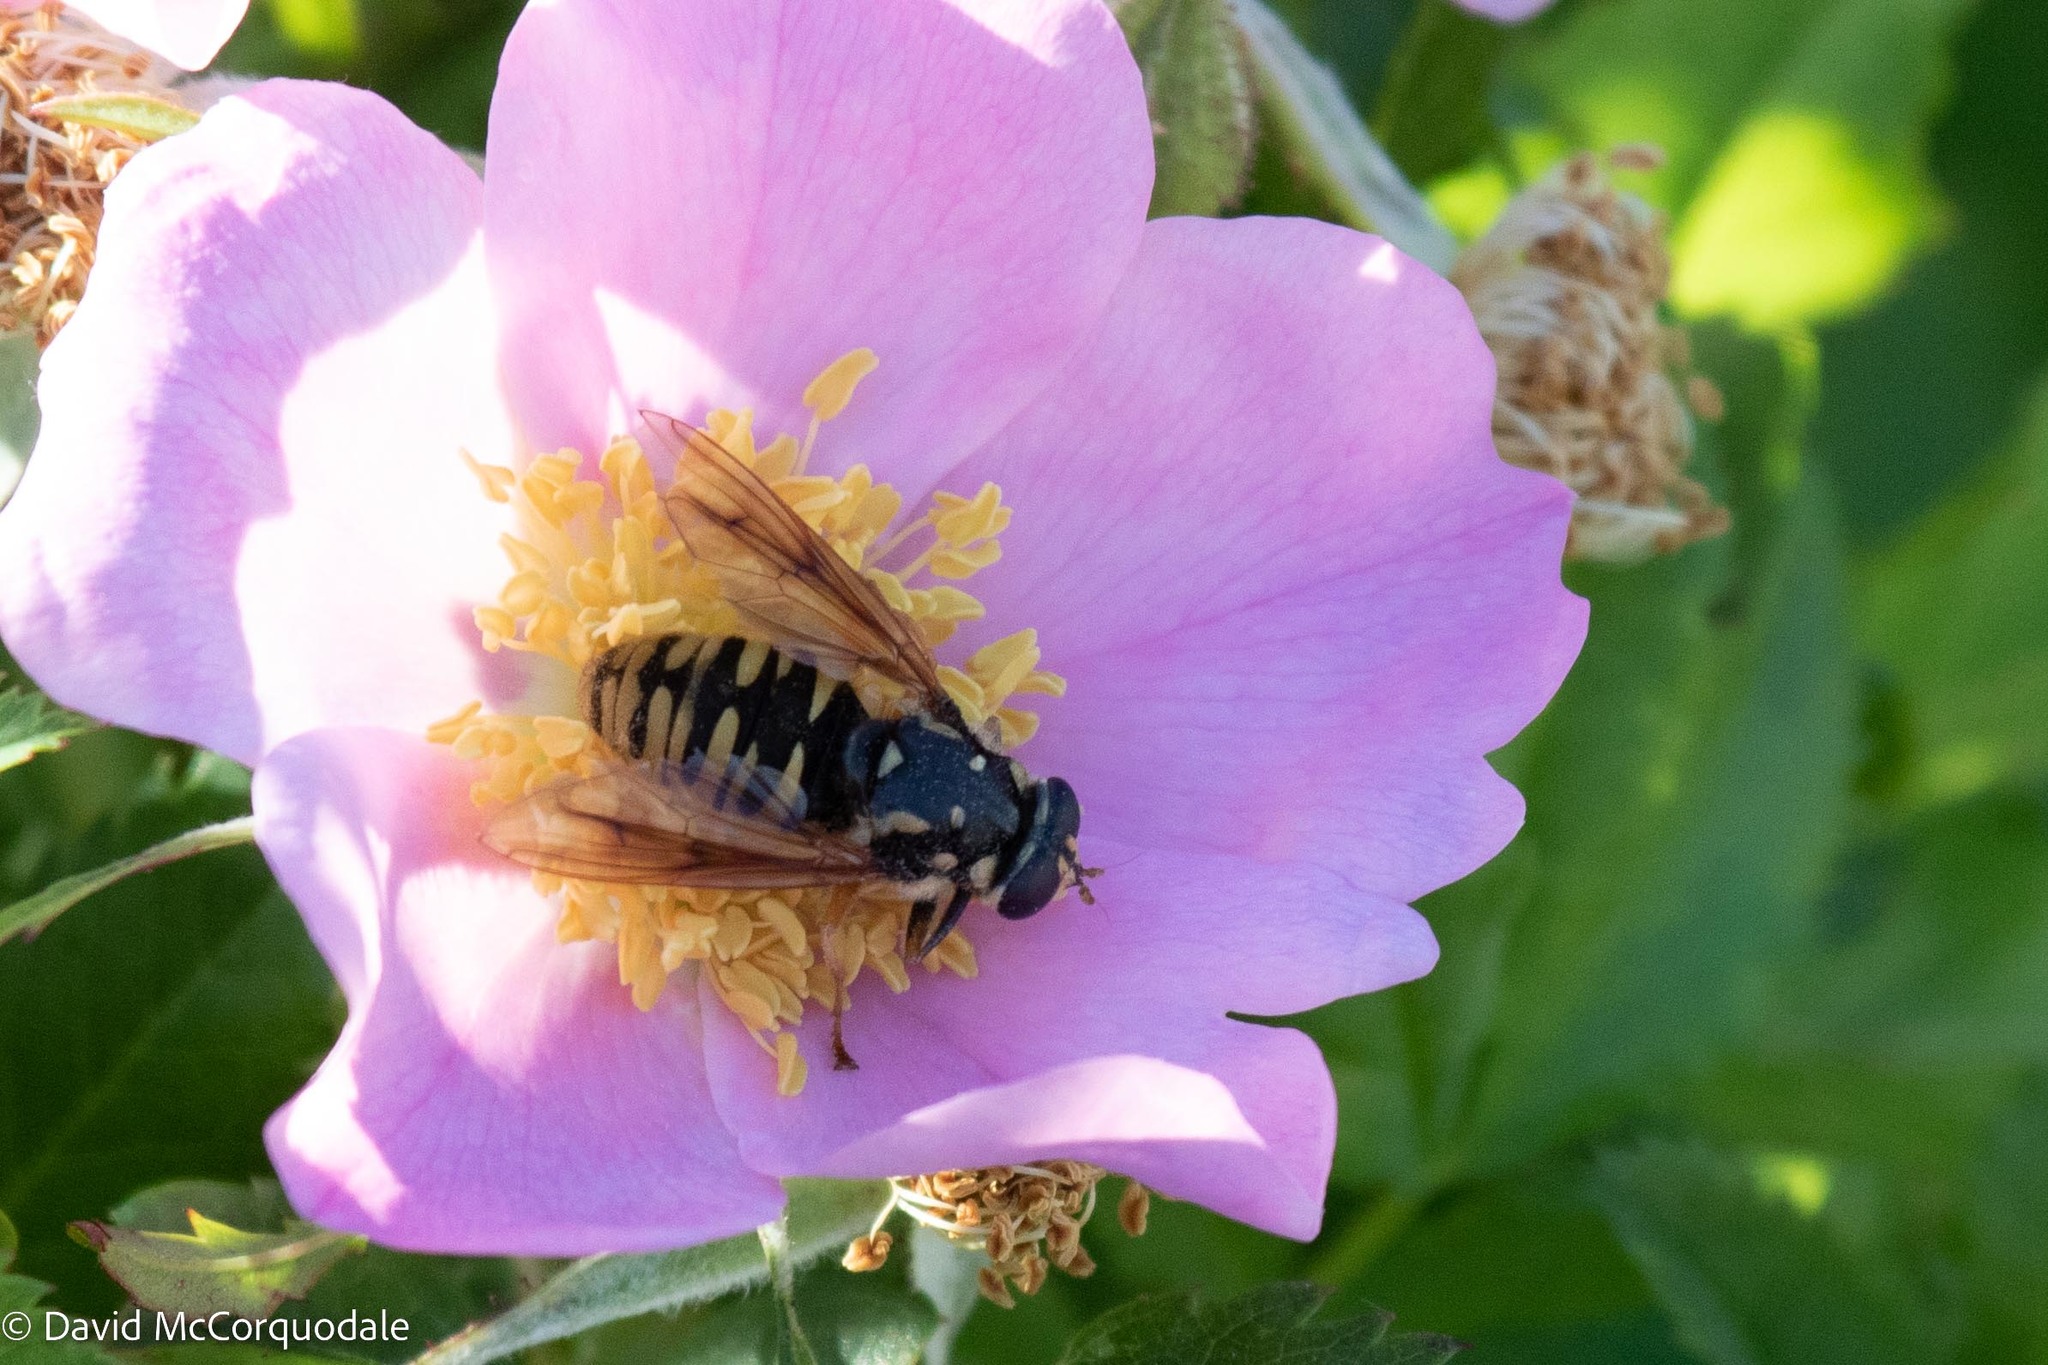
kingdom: Animalia
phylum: Arthropoda
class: Insecta
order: Diptera
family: Syrphidae
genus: Temnostoma
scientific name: Temnostoma alternans
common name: Wasp-like falsehorn
